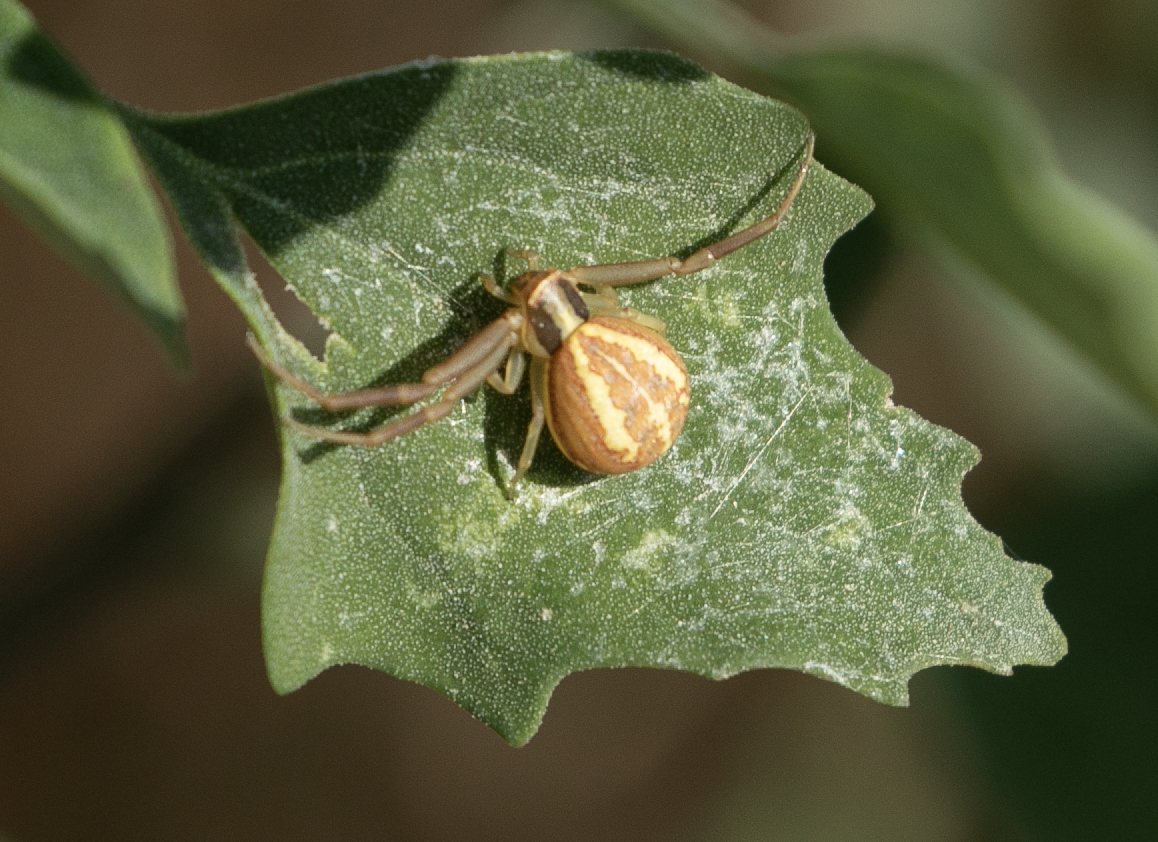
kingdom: Animalia
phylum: Arthropoda
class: Arachnida
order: Araneae
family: Thomisidae
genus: Runcinia
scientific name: Runcinia grammica
